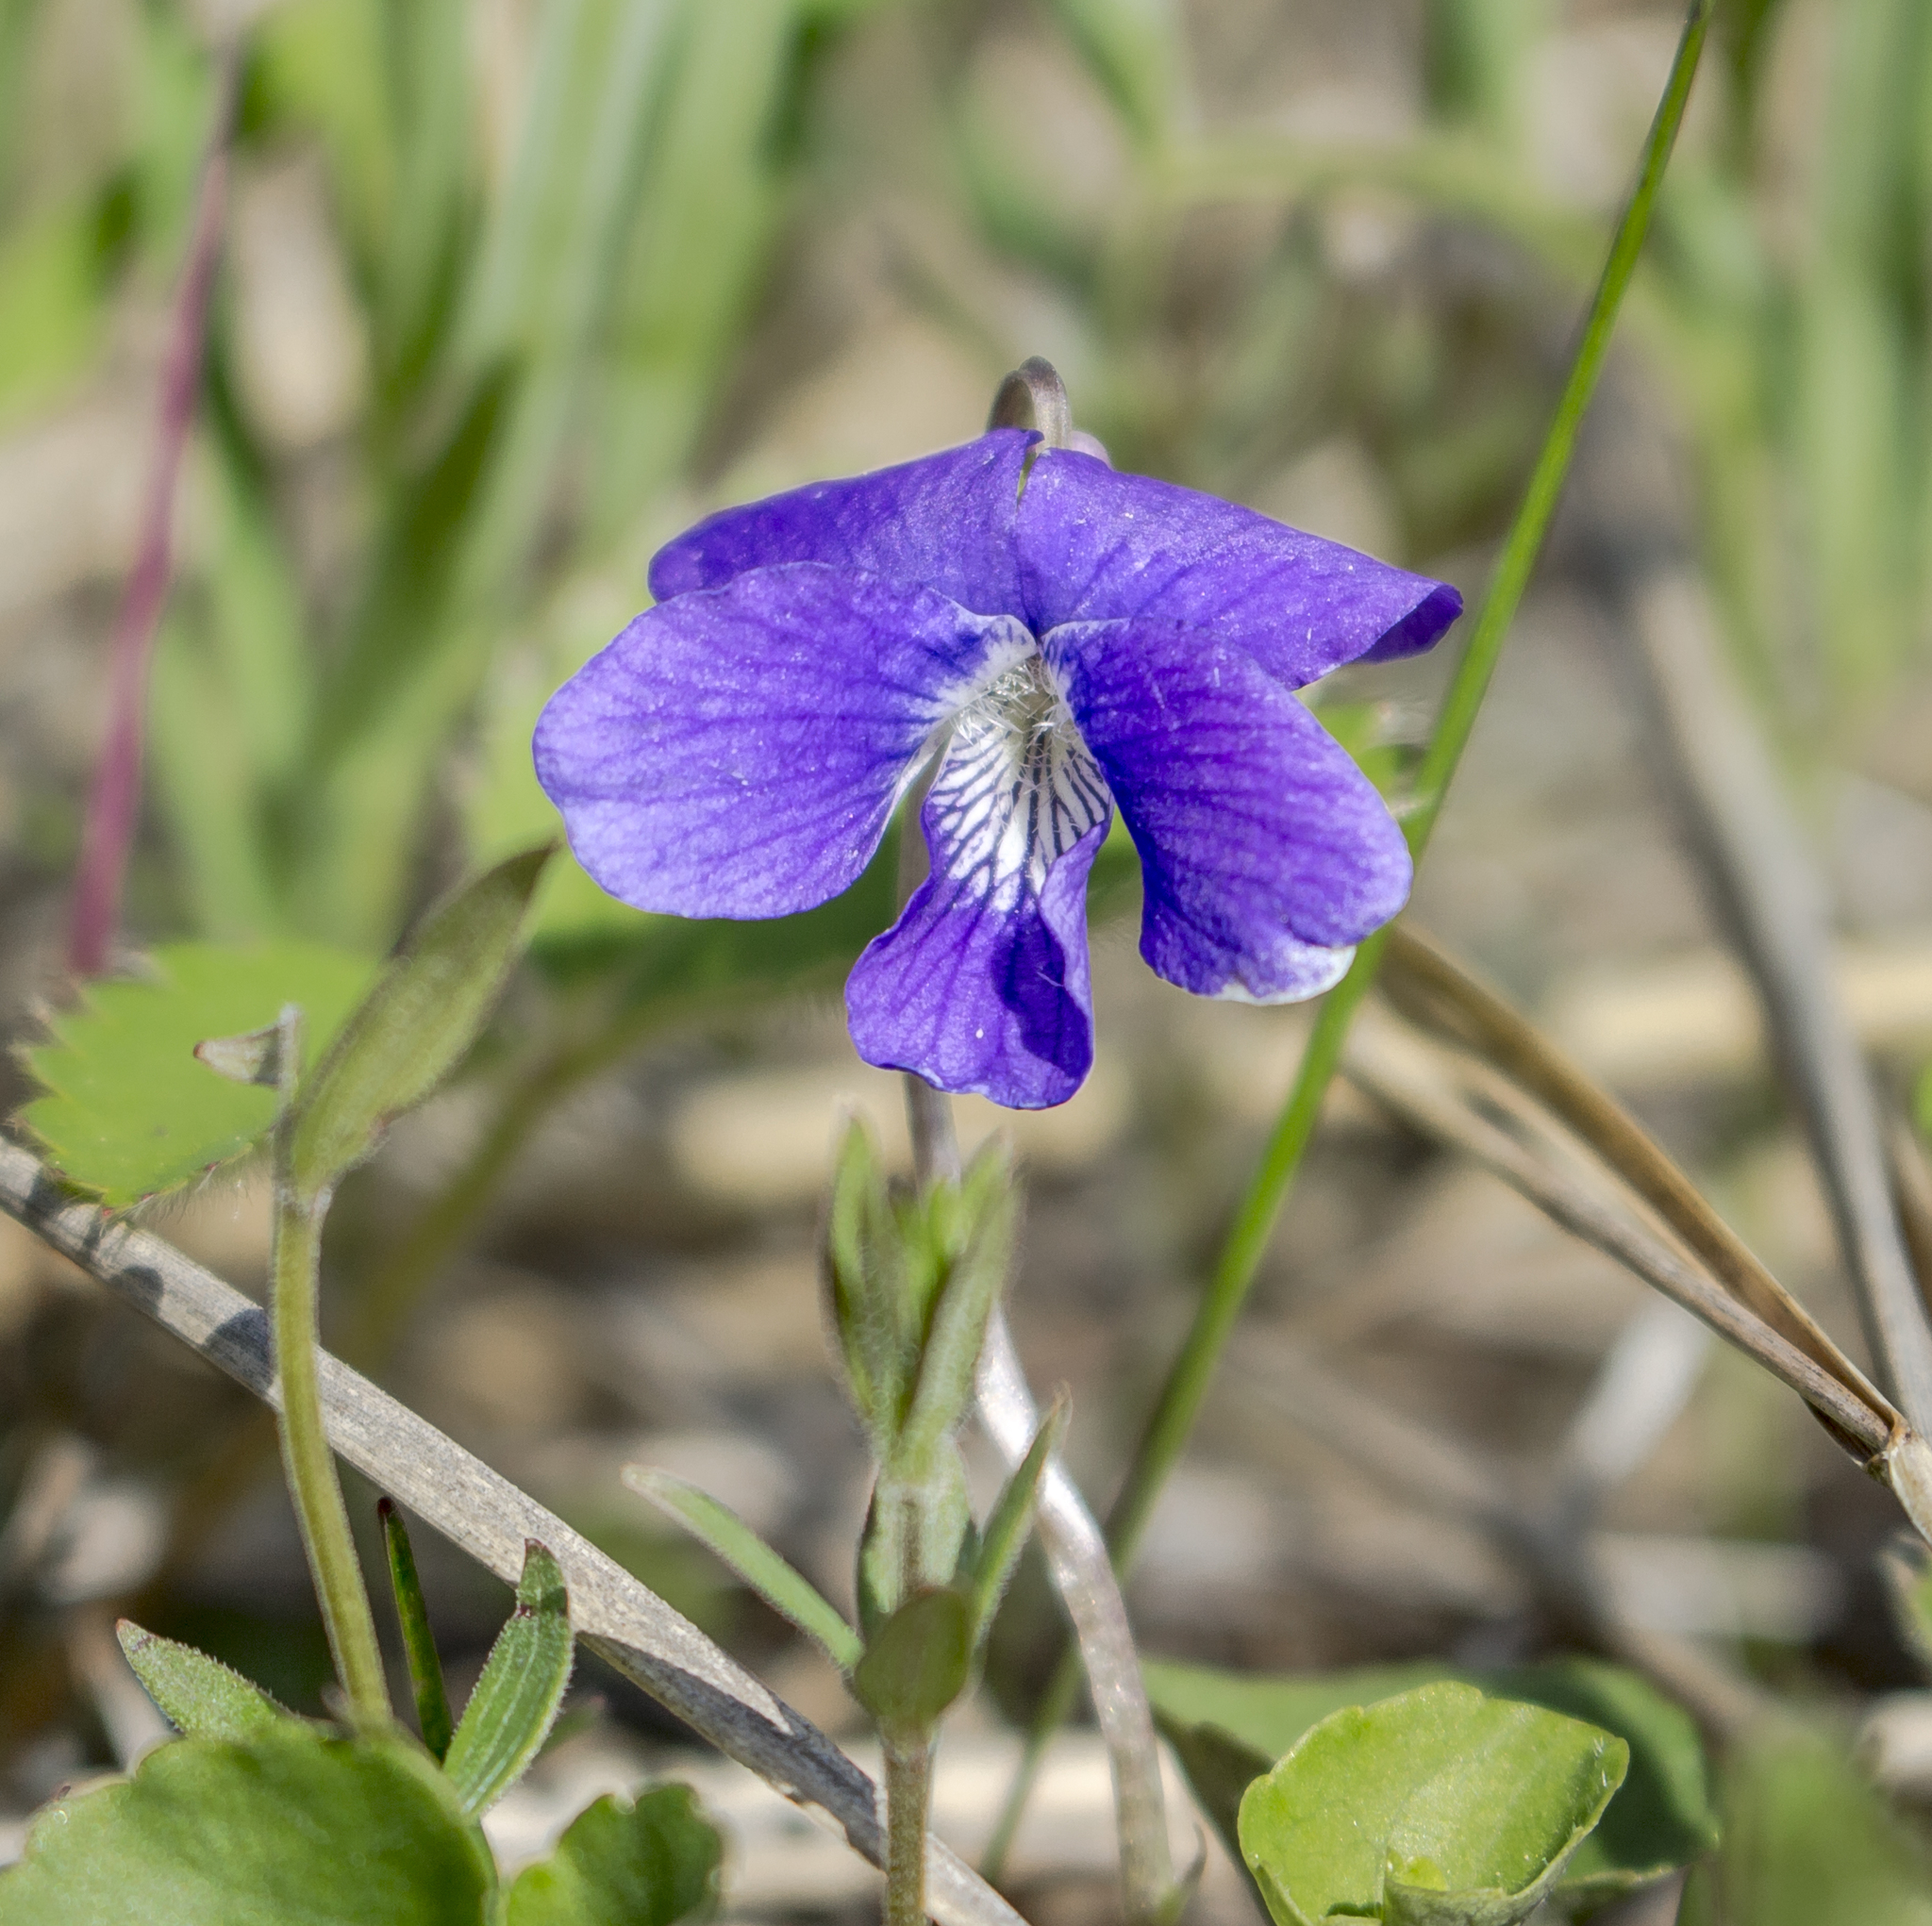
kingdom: Plantae
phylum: Tracheophyta
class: Magnoliopsida
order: Malpighiales
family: Violaceae
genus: Viola
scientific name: Viola sororia
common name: Dooryard violet
